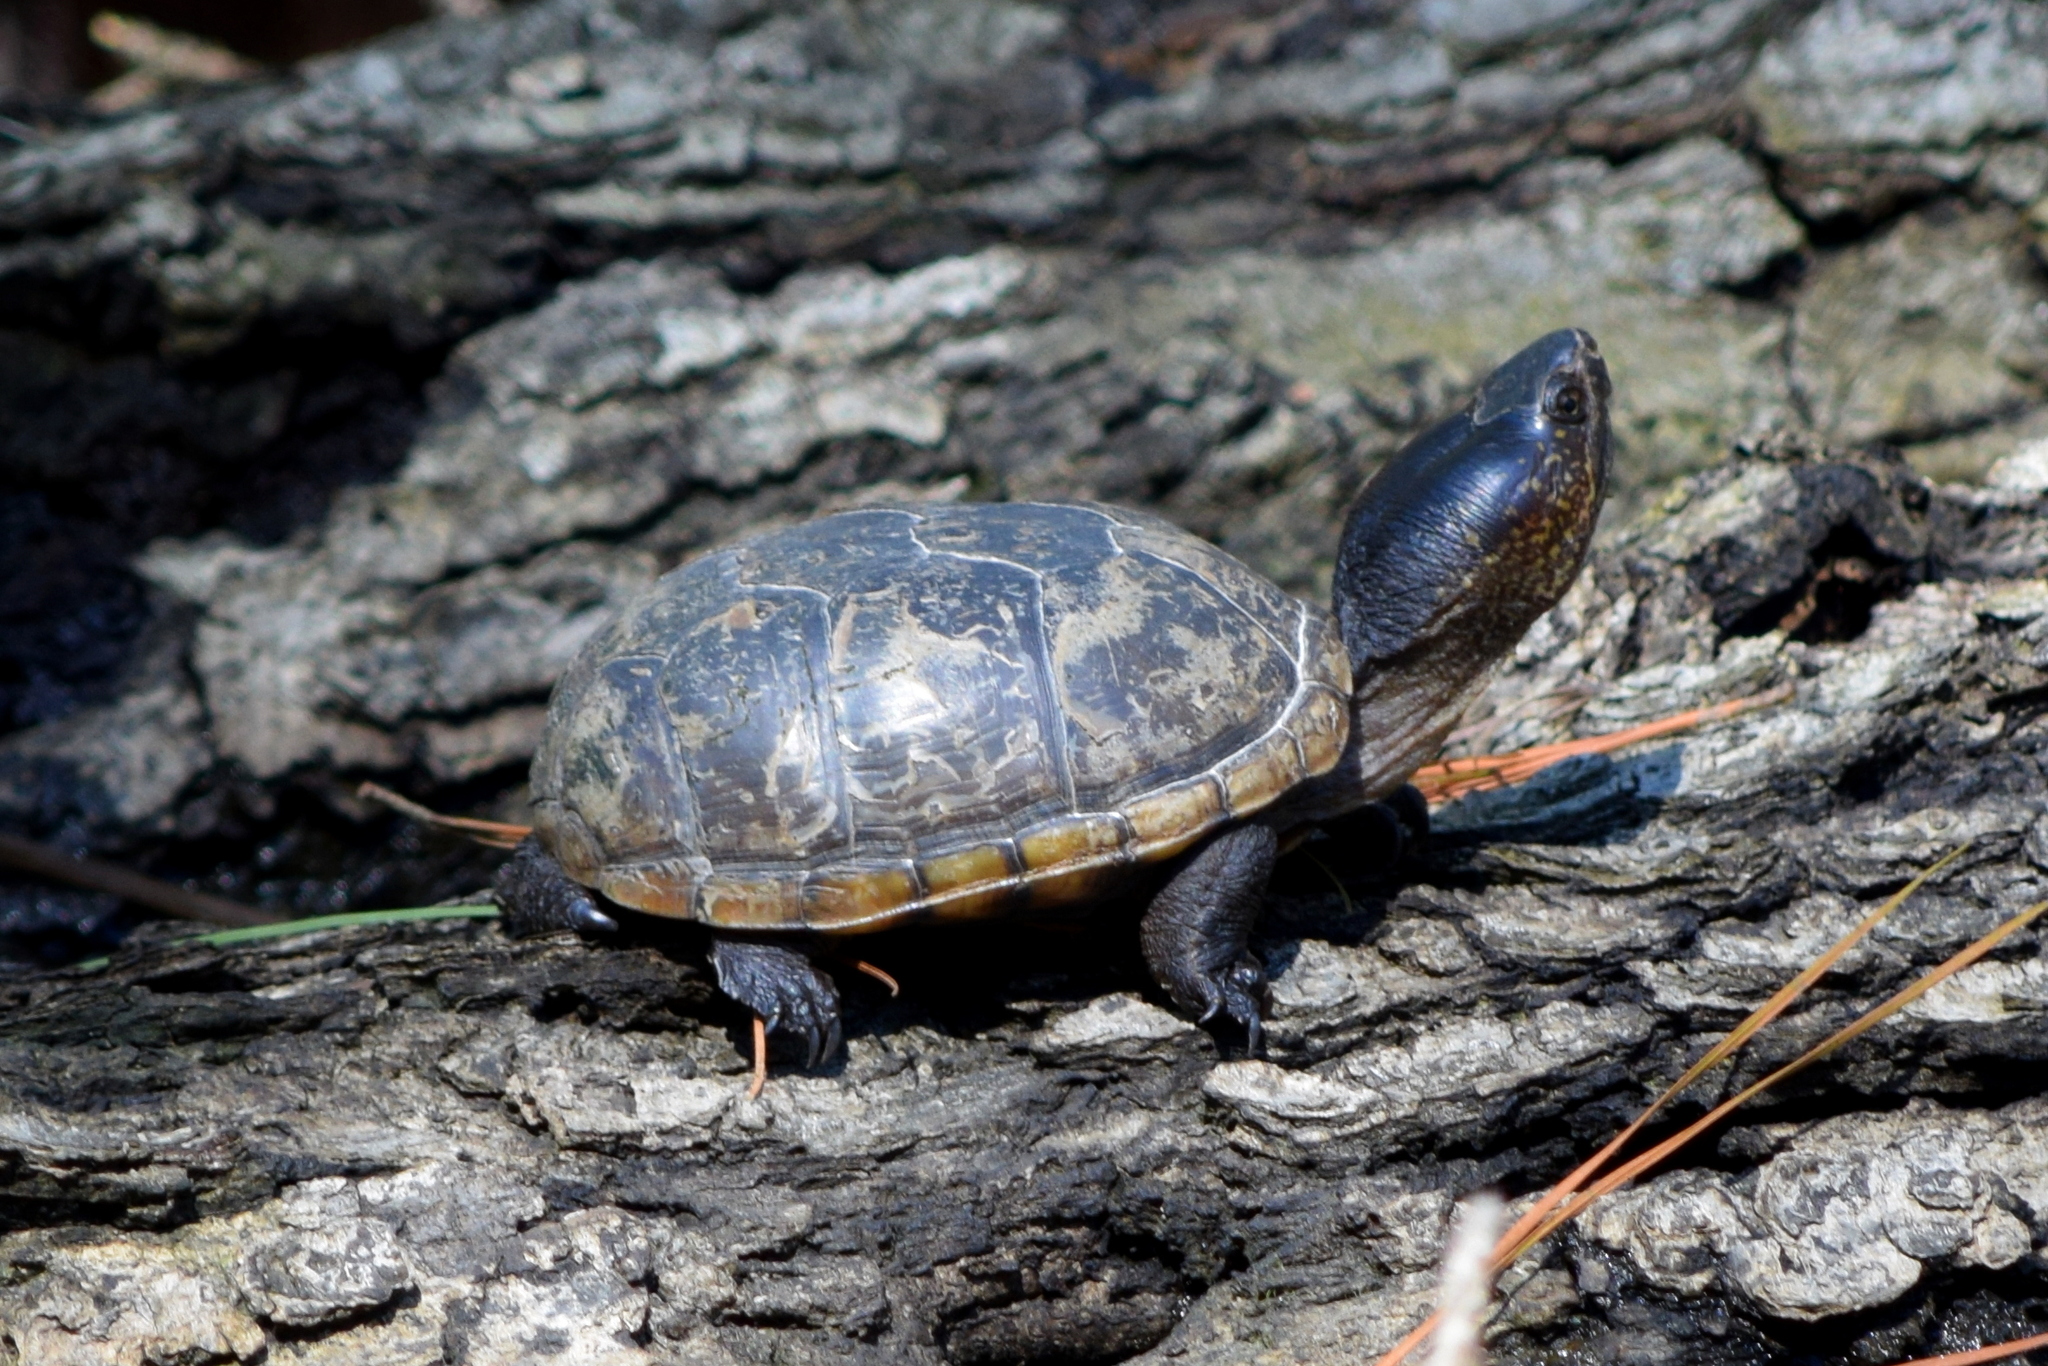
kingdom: Animalia
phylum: Chordata
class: Testudines
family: Kinosternidae
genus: Kinosternon
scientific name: Kinosternon subrubrum
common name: Eastern mud turtle
